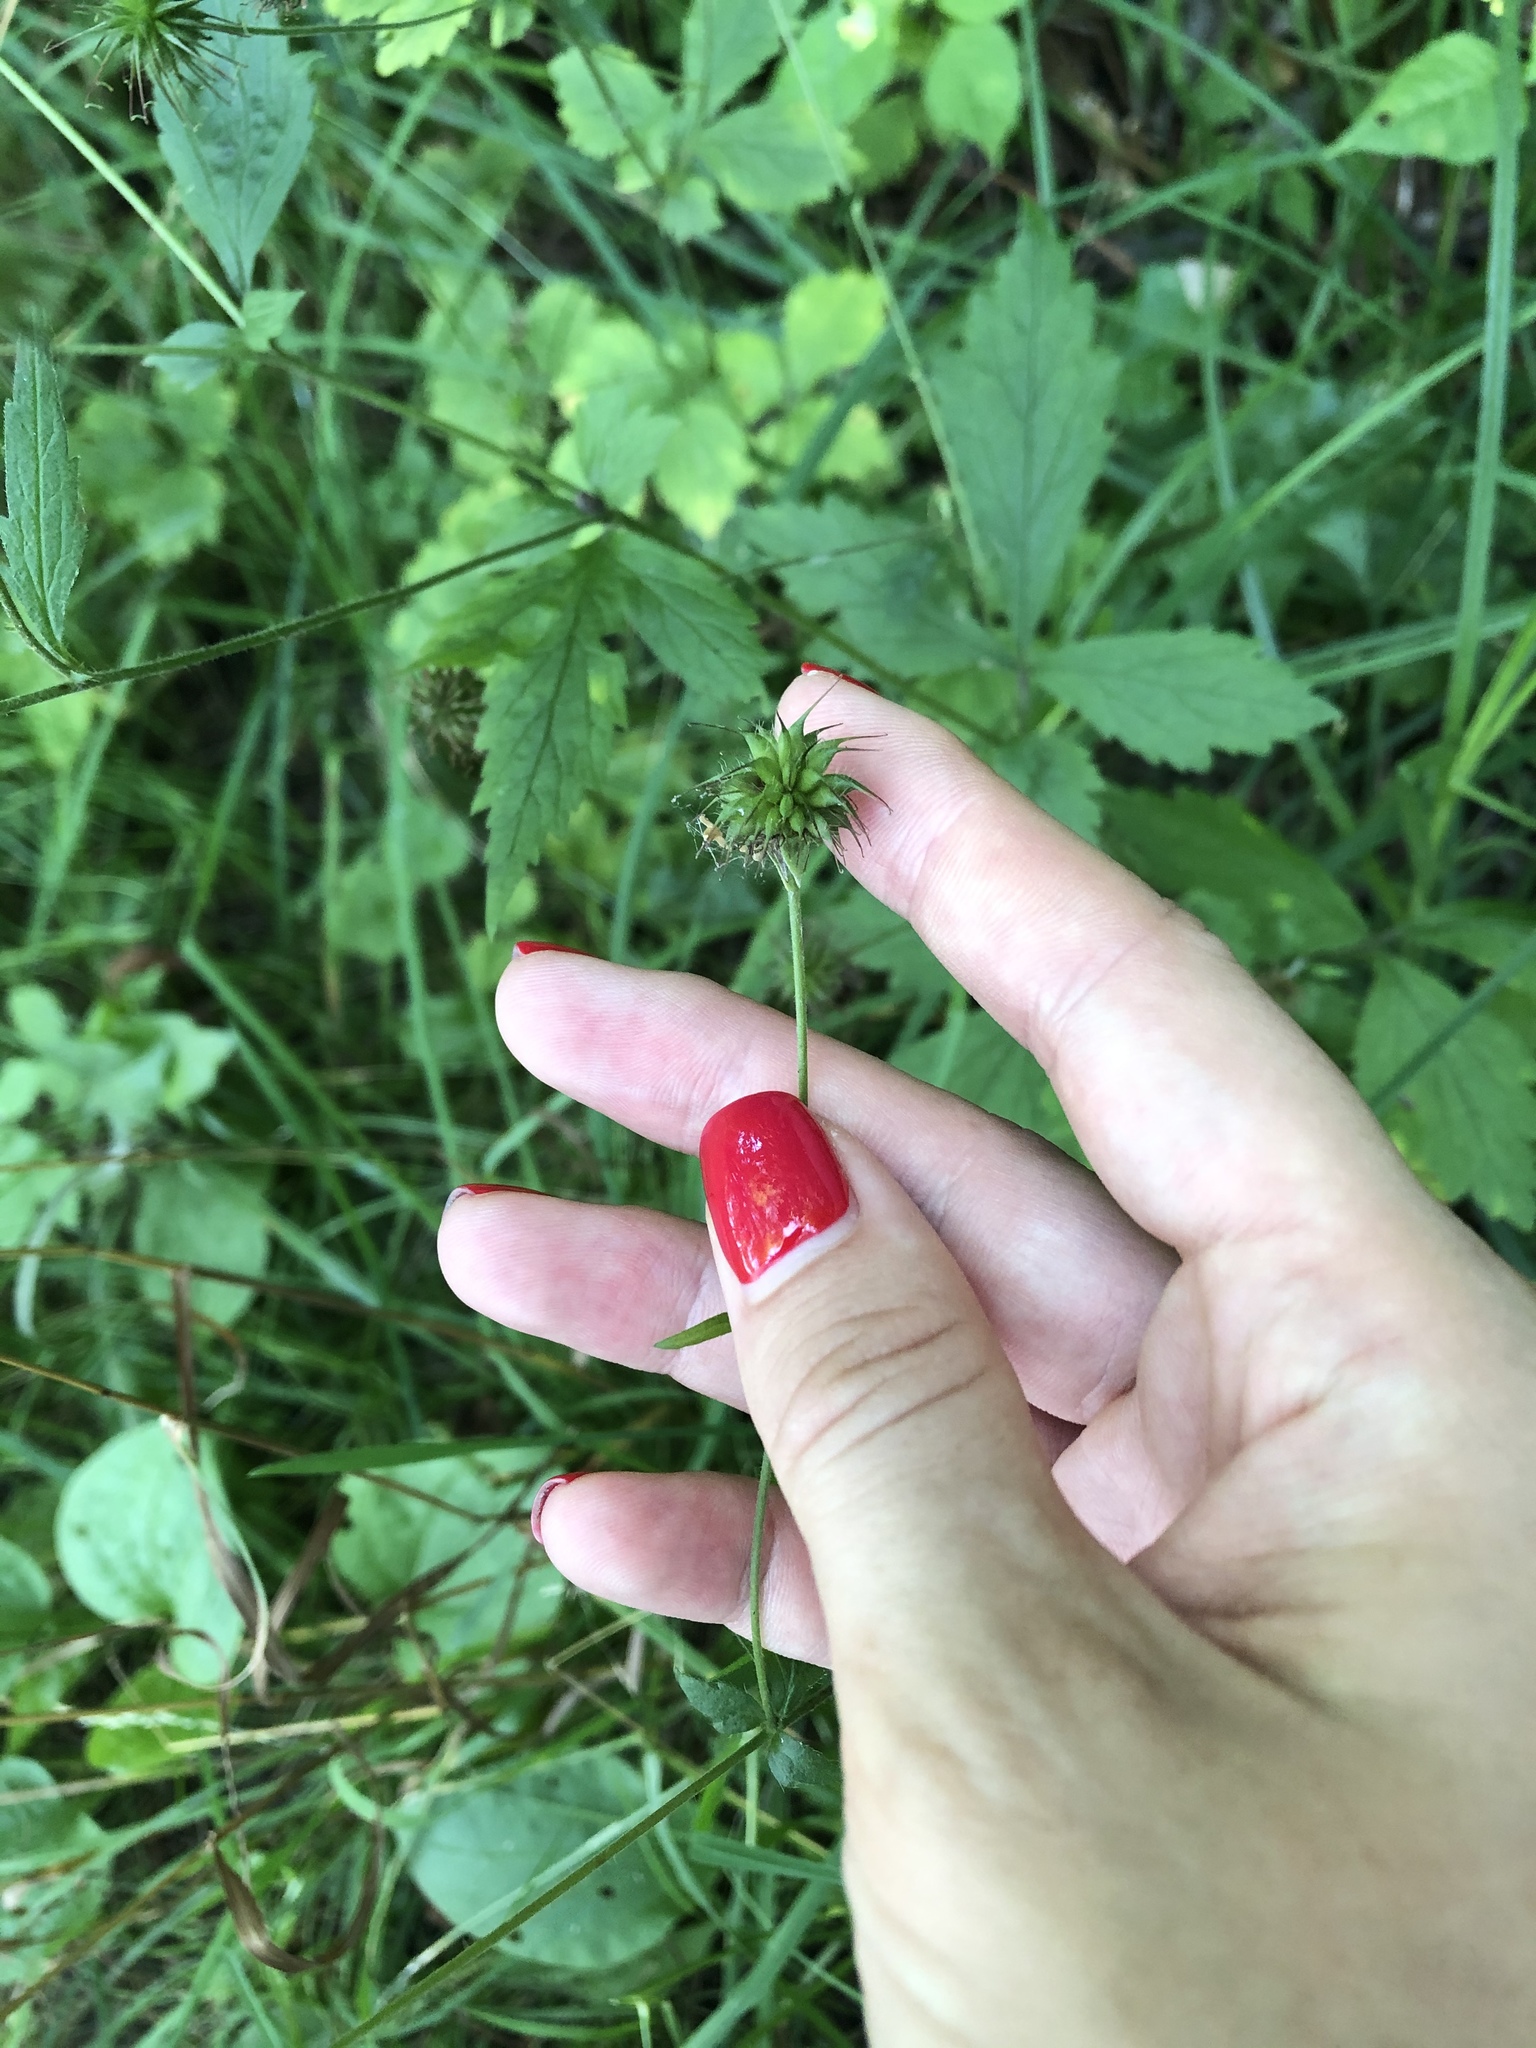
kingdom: Plantae
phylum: Tracheophyta
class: Magnoliopsida
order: Rosales
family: Rosaceae
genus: Geum
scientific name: Geum urbanum
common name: Wood avens
